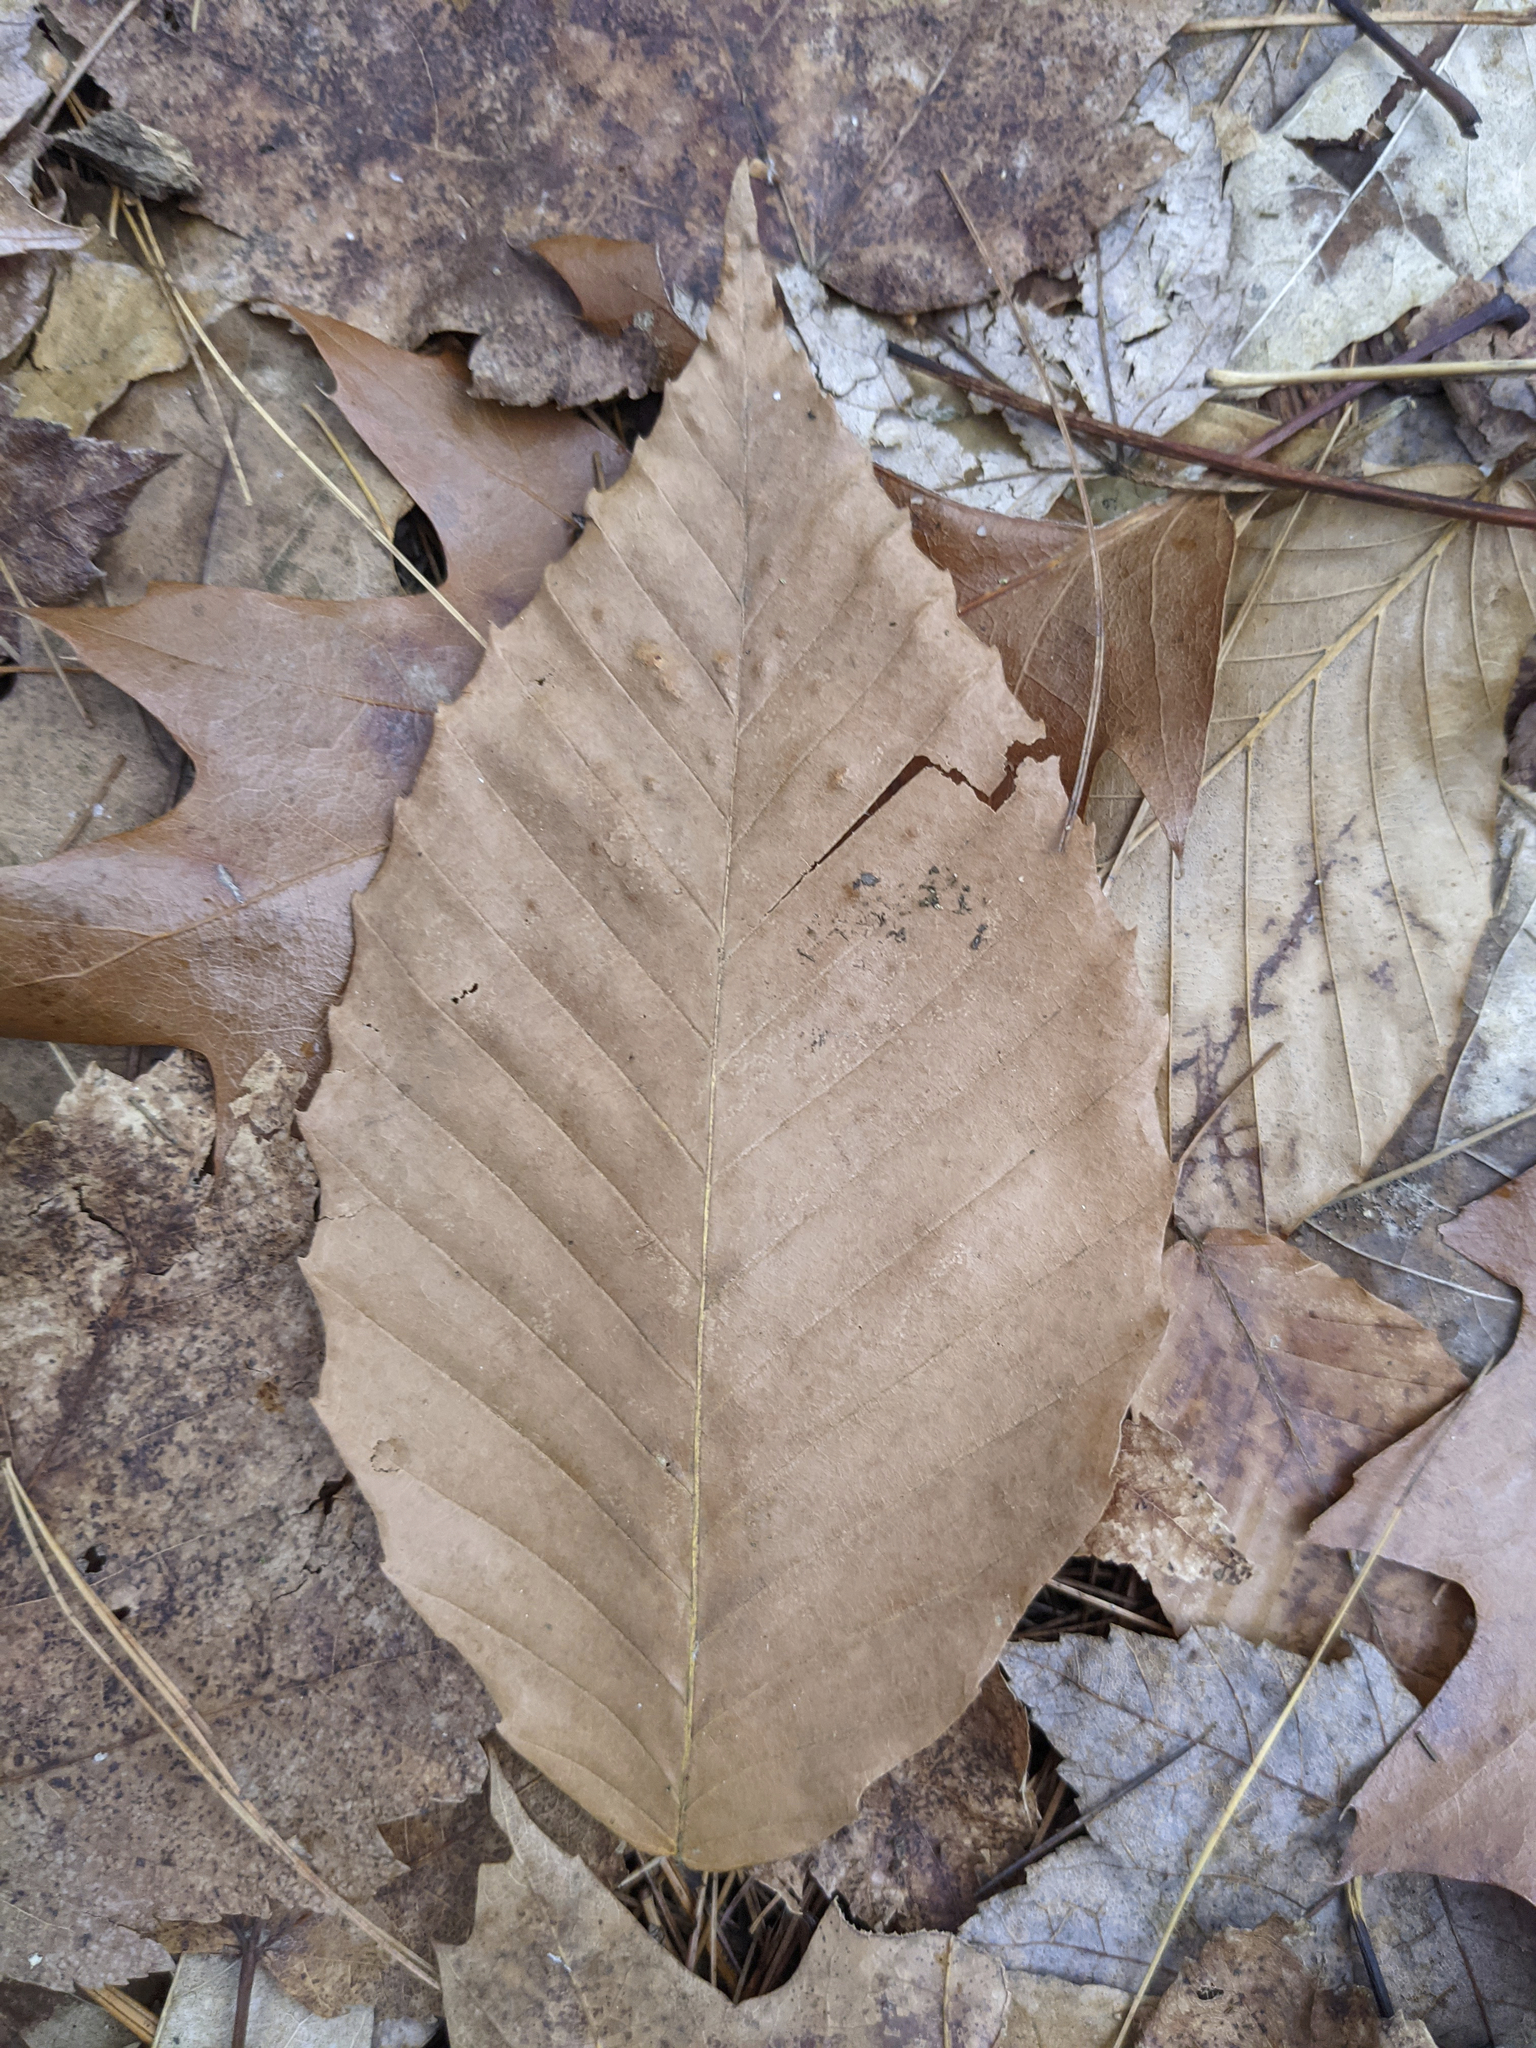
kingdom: Plantae
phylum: Tracheophyta
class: Magnoliopsida
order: Fagales
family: Fagaceae
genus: Fagus
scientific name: Fagus grandifolia
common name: American beech
